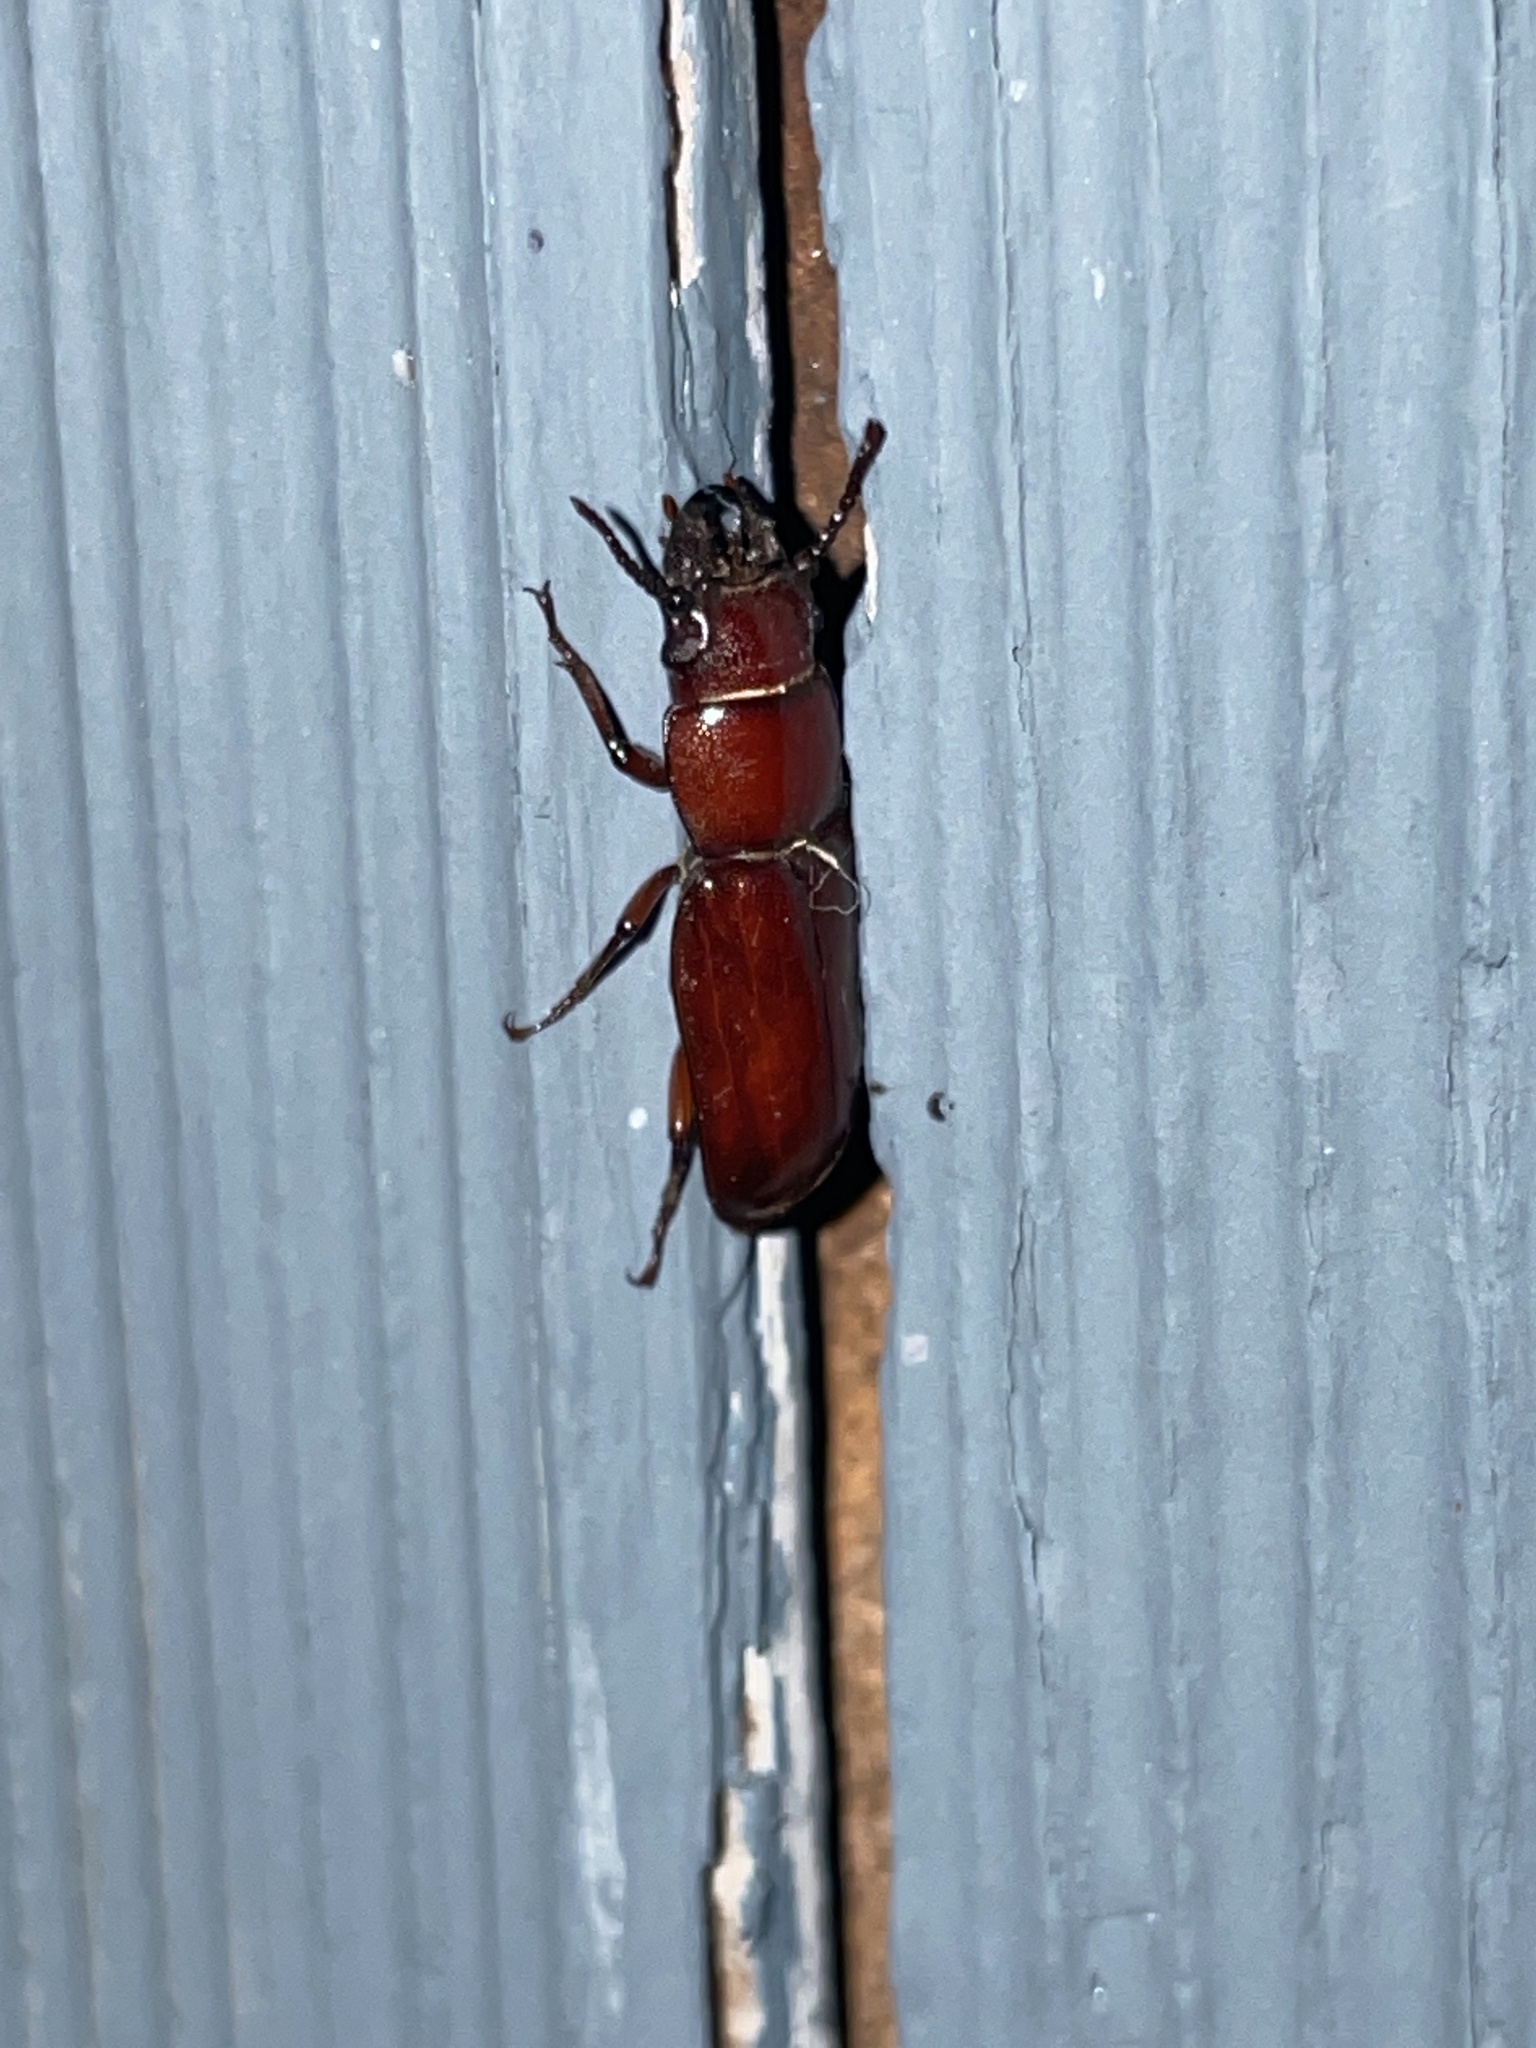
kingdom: Animalia
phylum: Arthropoda
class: Insecta
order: Coleoptera
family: Cerambycidae
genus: Neandra
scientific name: Neandra brunnea
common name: Pole borer
